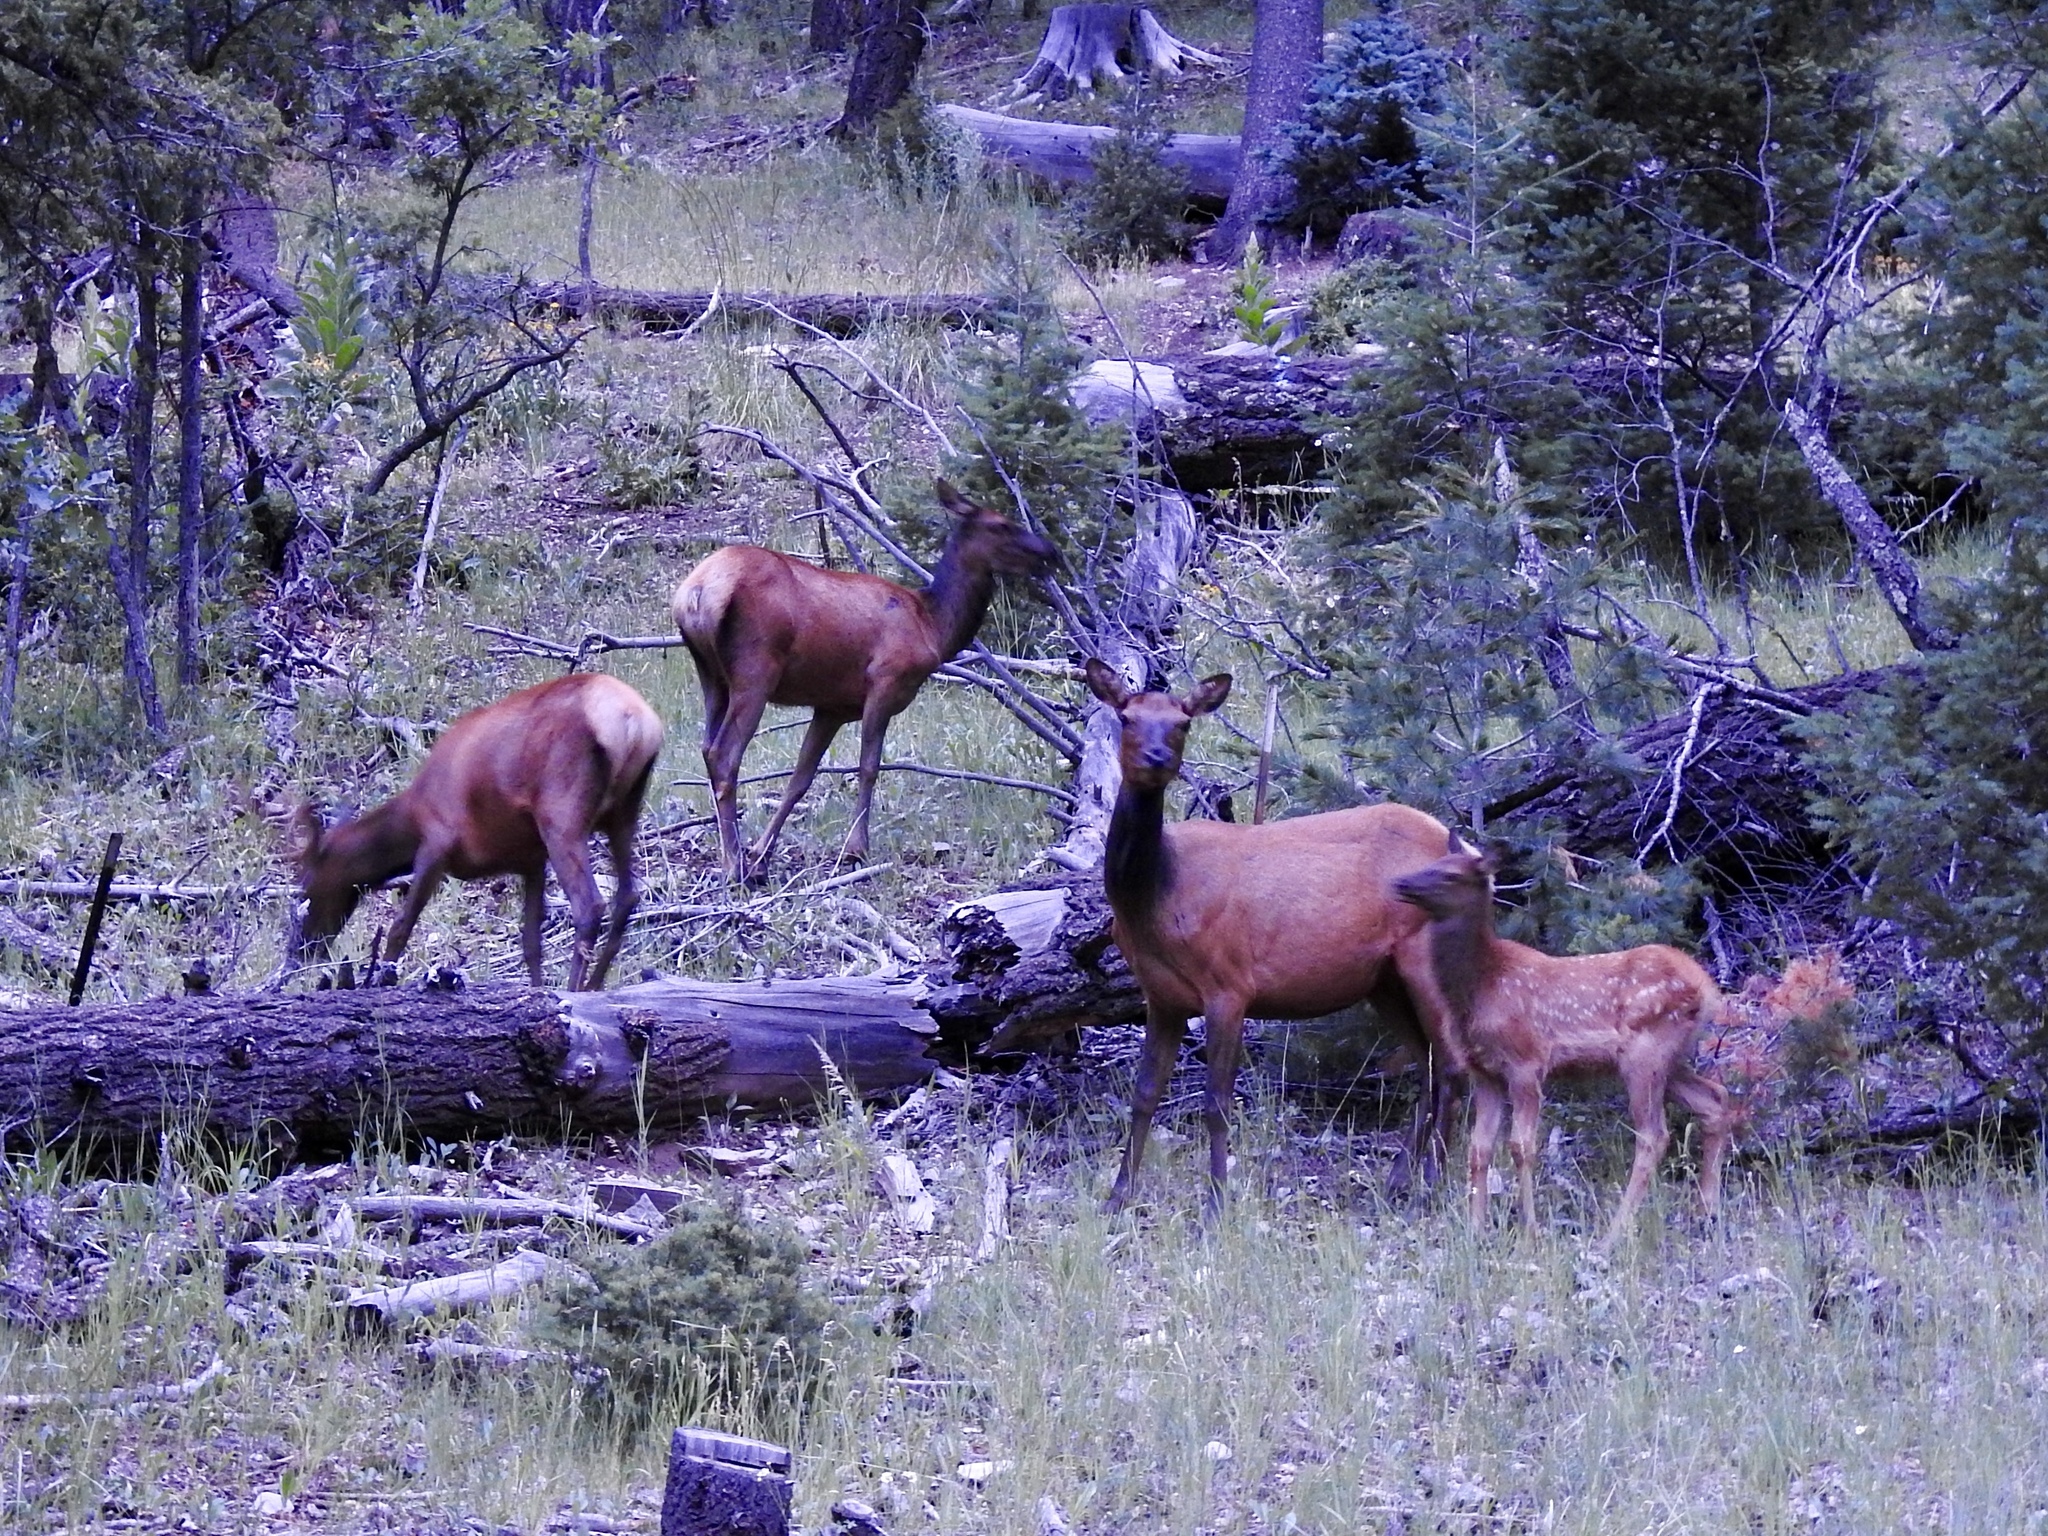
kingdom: Animalia
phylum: Chordata
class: Mammalia
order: Artiodactyla
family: Cervidae
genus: Cervus
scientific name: Cervus elaphus
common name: Red deer
